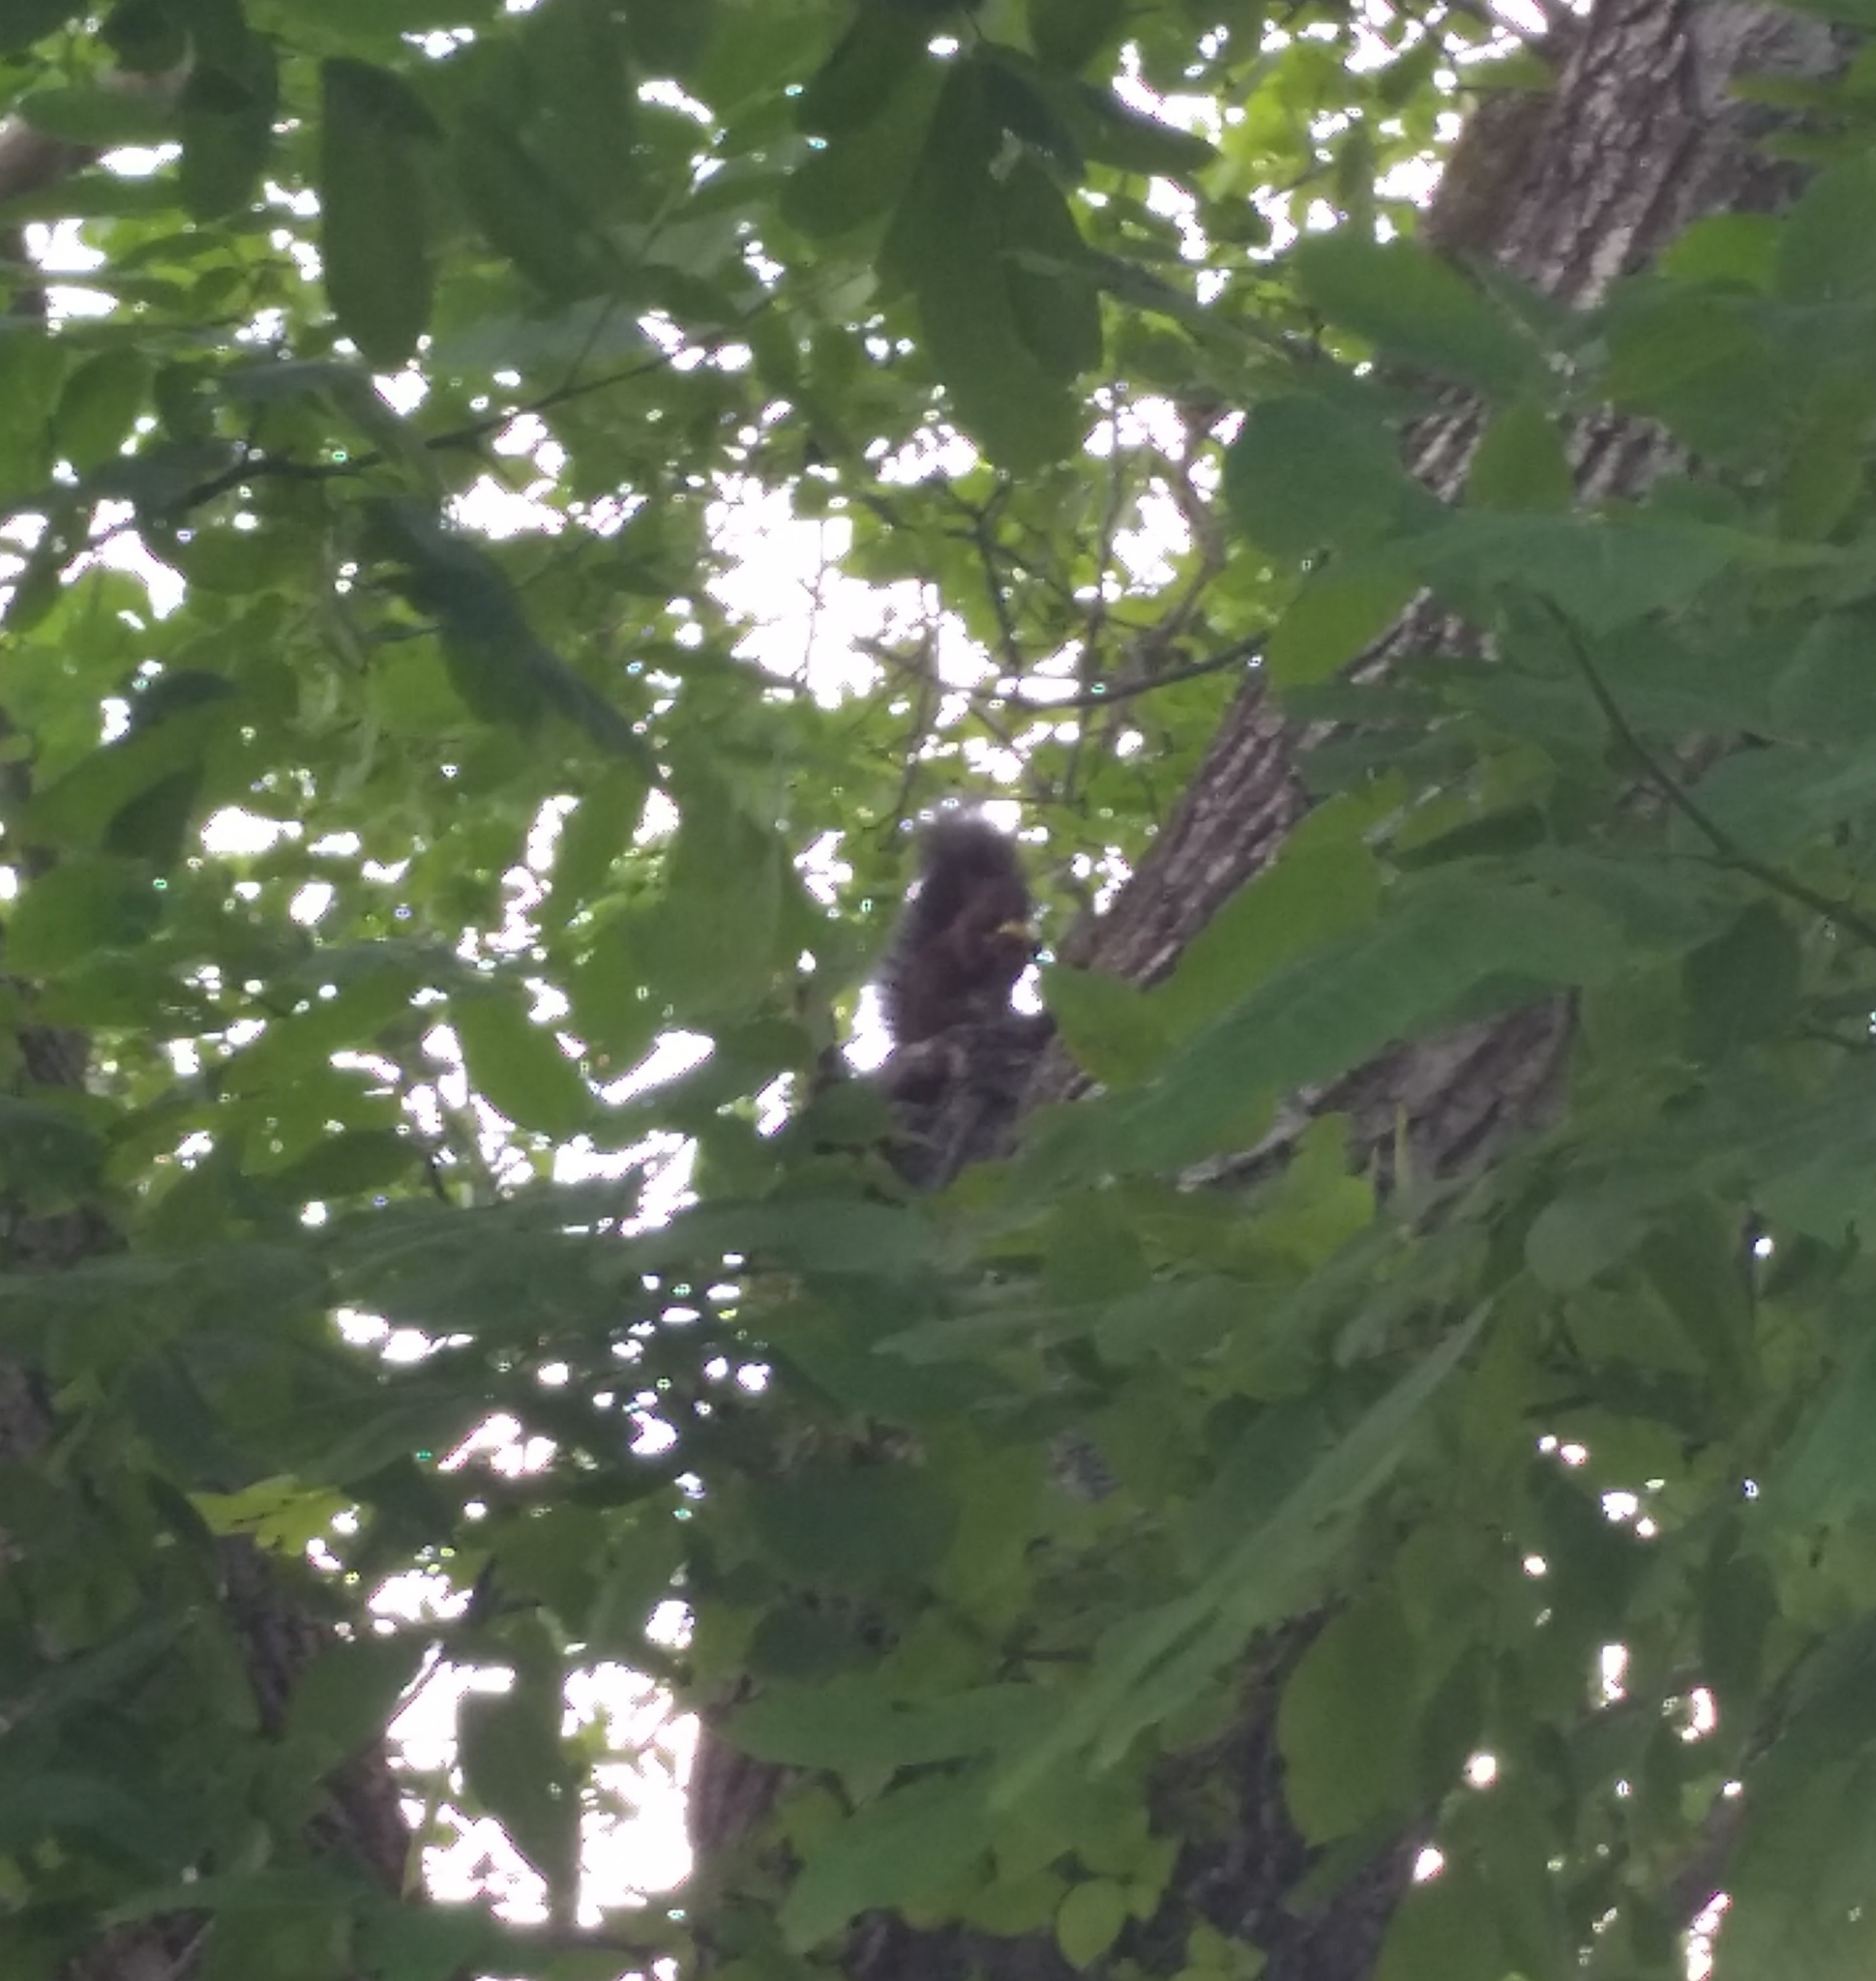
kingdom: Animalia
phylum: Chordata
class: Mammalia
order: Rodentia
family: Sciuridae
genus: Sciurus
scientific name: Sciurus vulgaris
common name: Eurasian red squirrel
